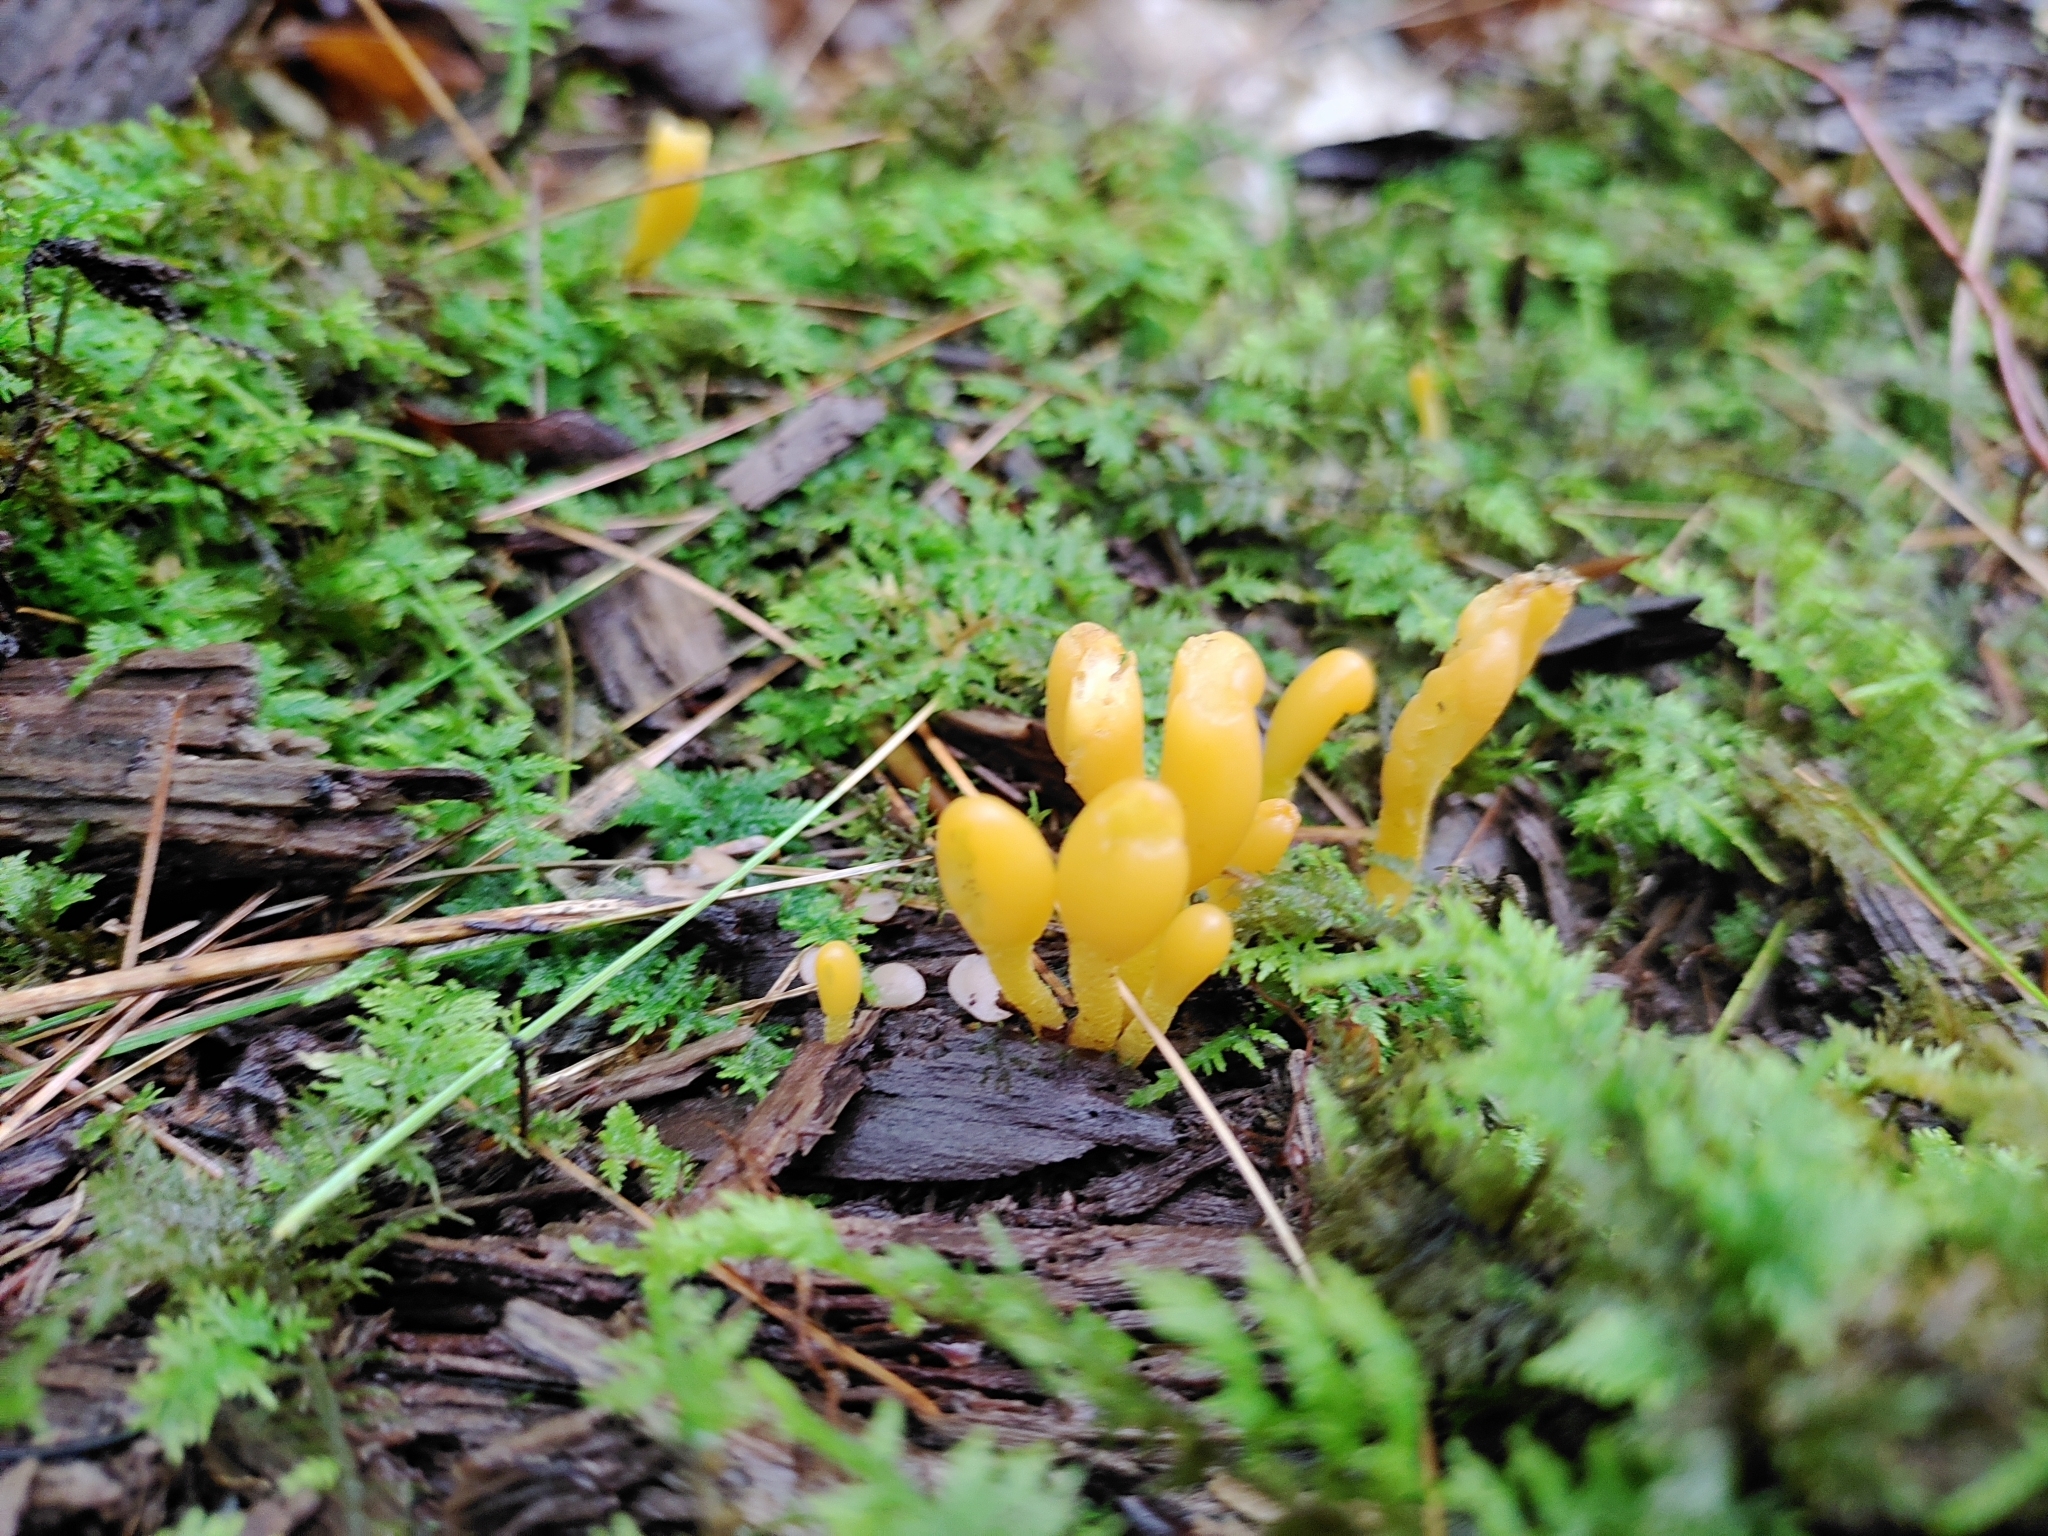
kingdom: Fungi
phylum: Ascomycota
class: Leotiomycetes
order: Leotiales
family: Leotiaceae
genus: Microglossum
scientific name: Microglossum rufum
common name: Orange earthtongue
